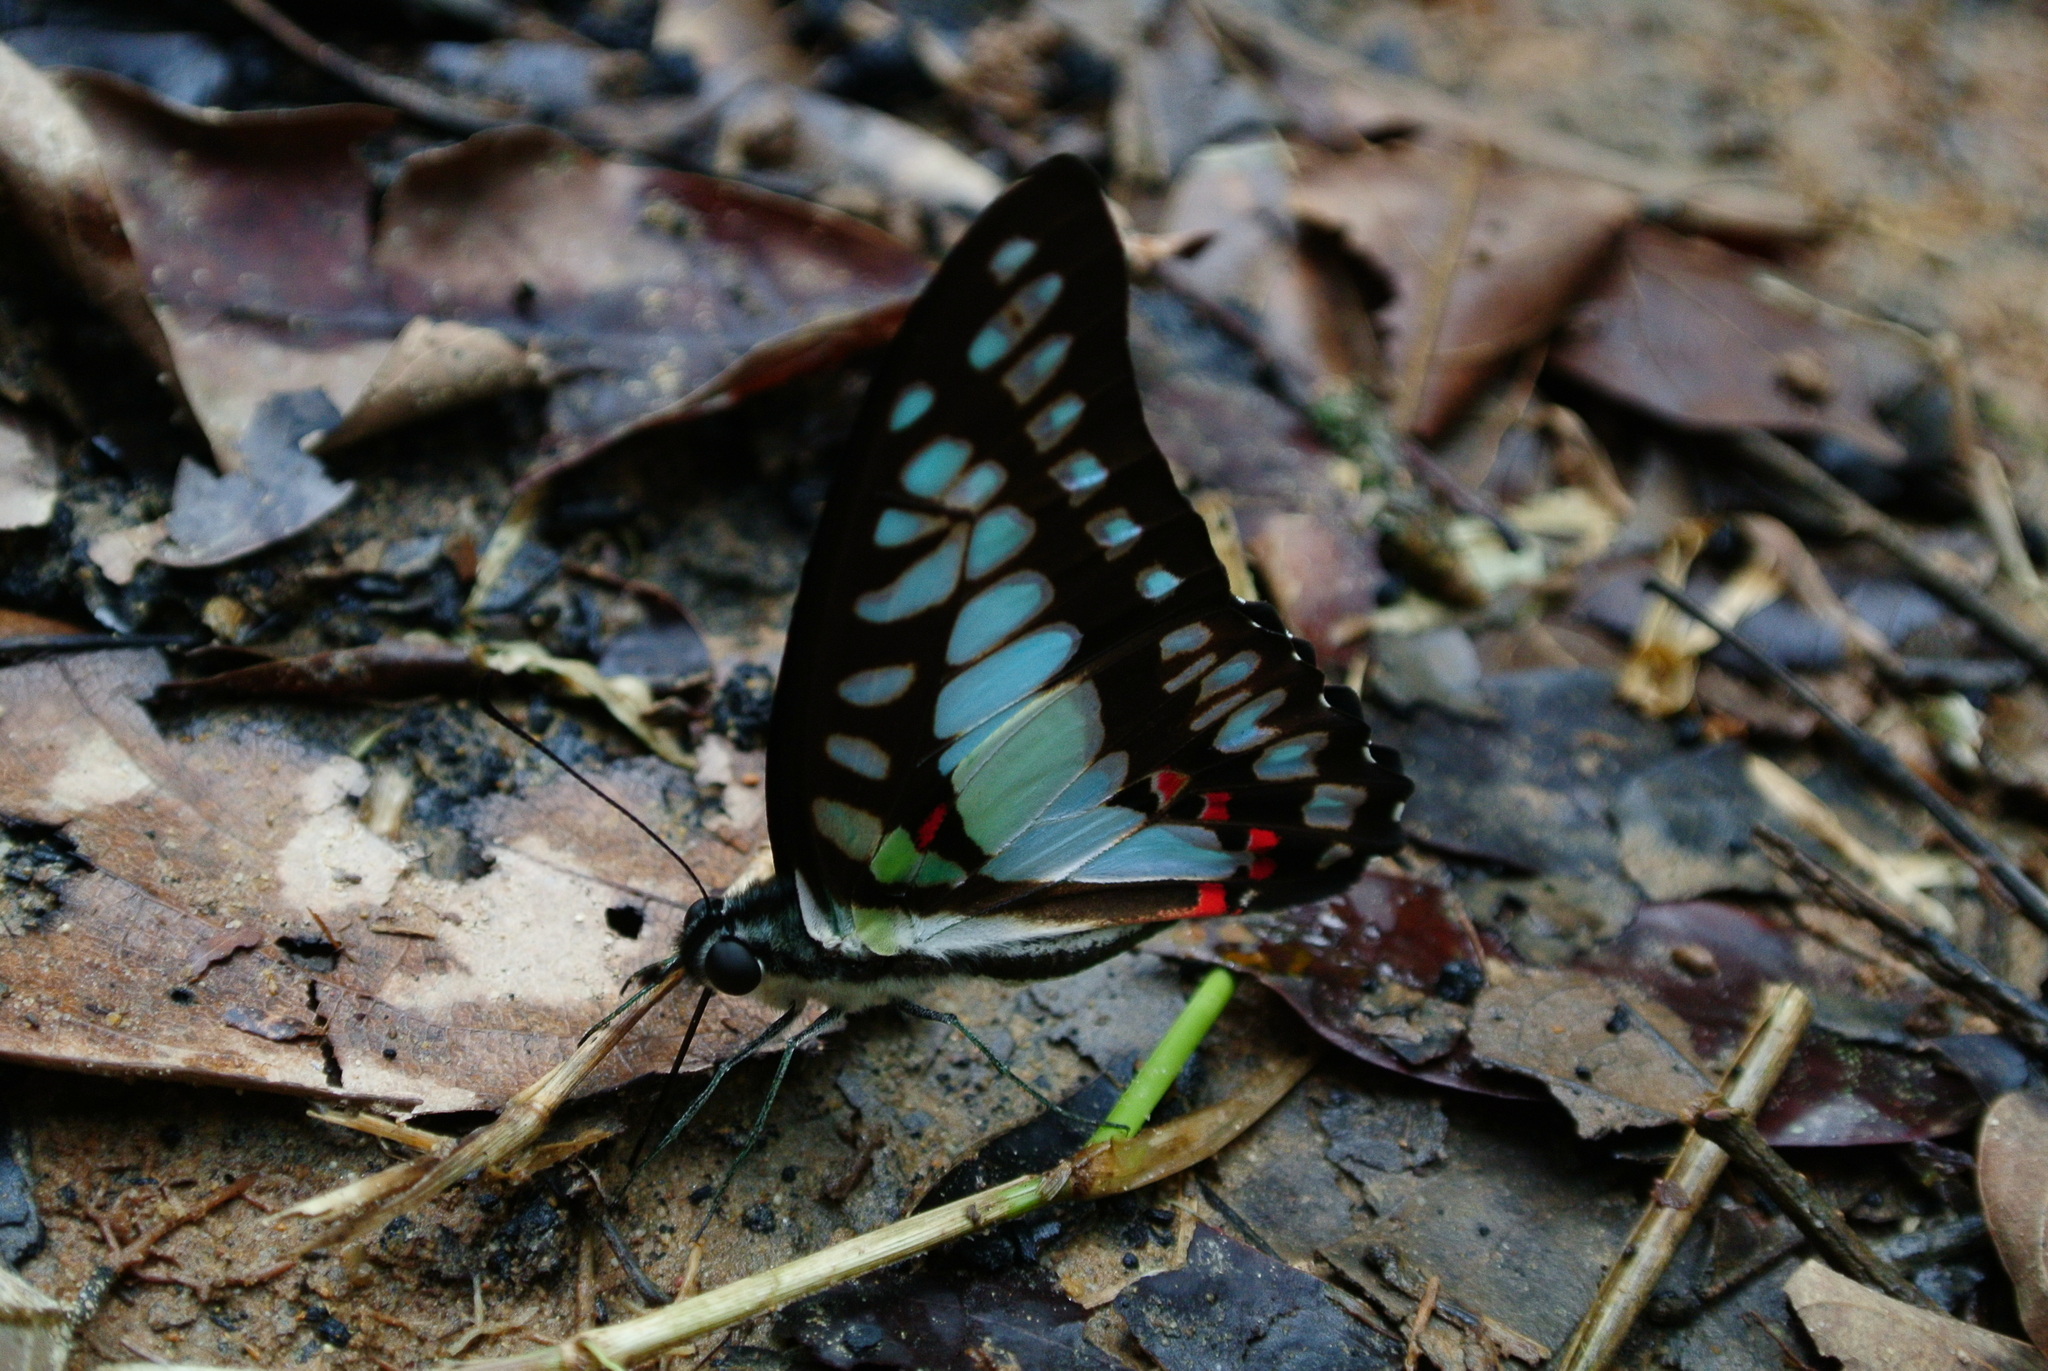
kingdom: Animalia
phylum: Arthropoda
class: Insecta
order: Lepidoptera
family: Papilionidae
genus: Graphium
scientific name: Graphium eurypylus
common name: Great jay
